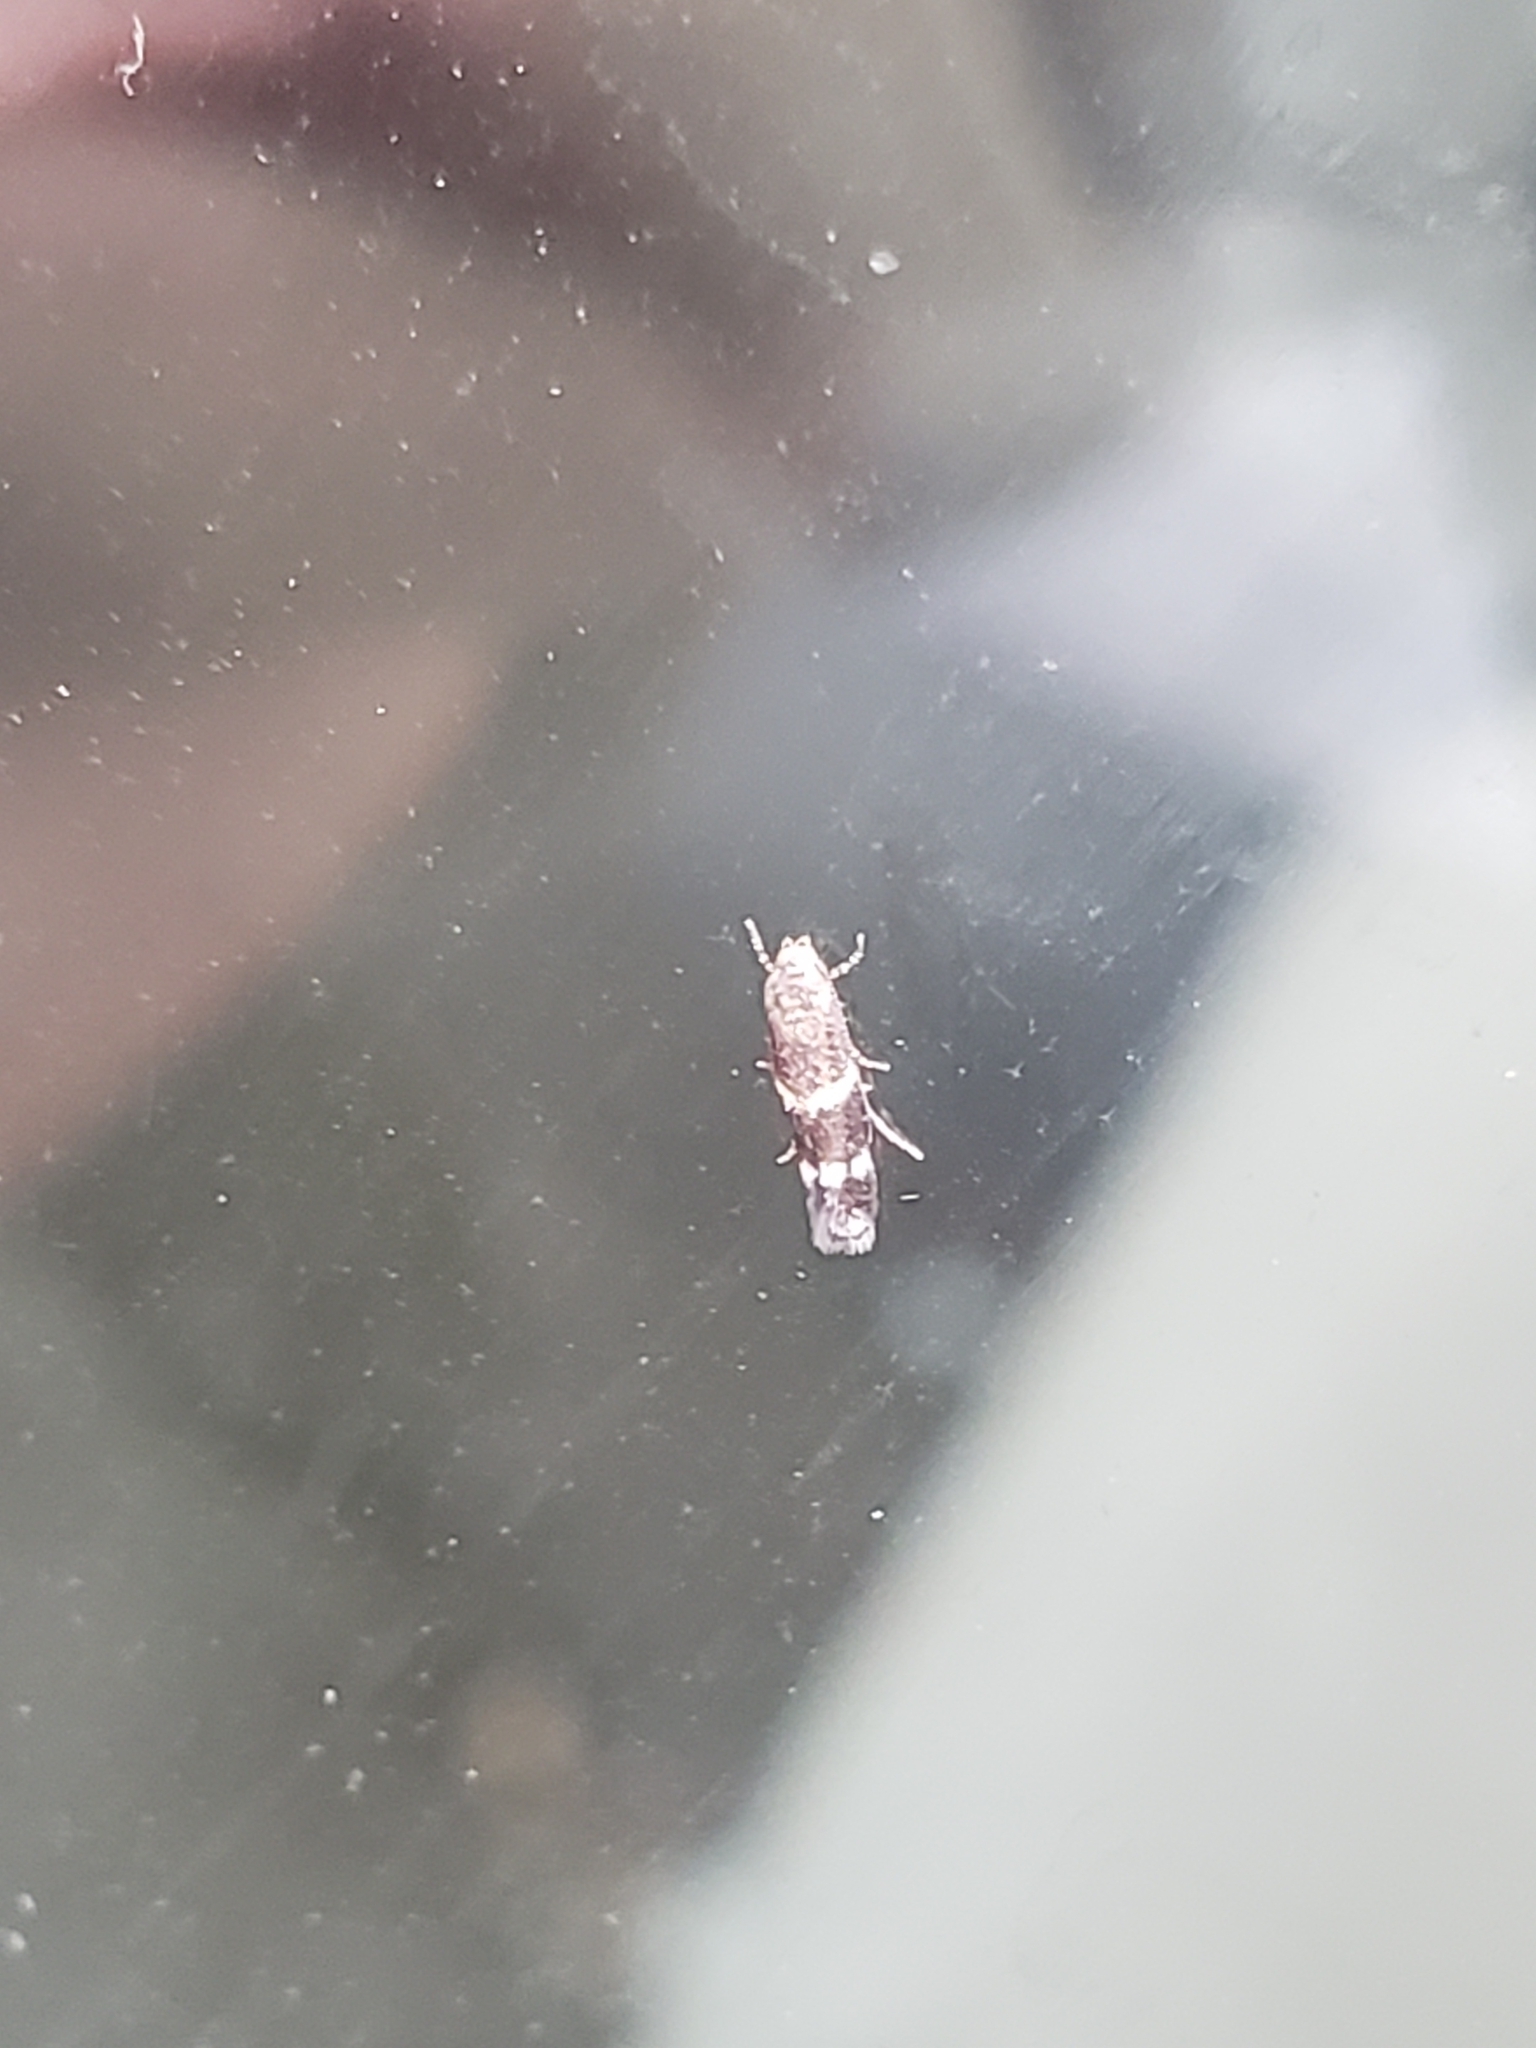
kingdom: Animalia
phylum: Arthropoda
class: Insecta
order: Lepidoptera
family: Elachistidae
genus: Elachista
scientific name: Elachista illectella
